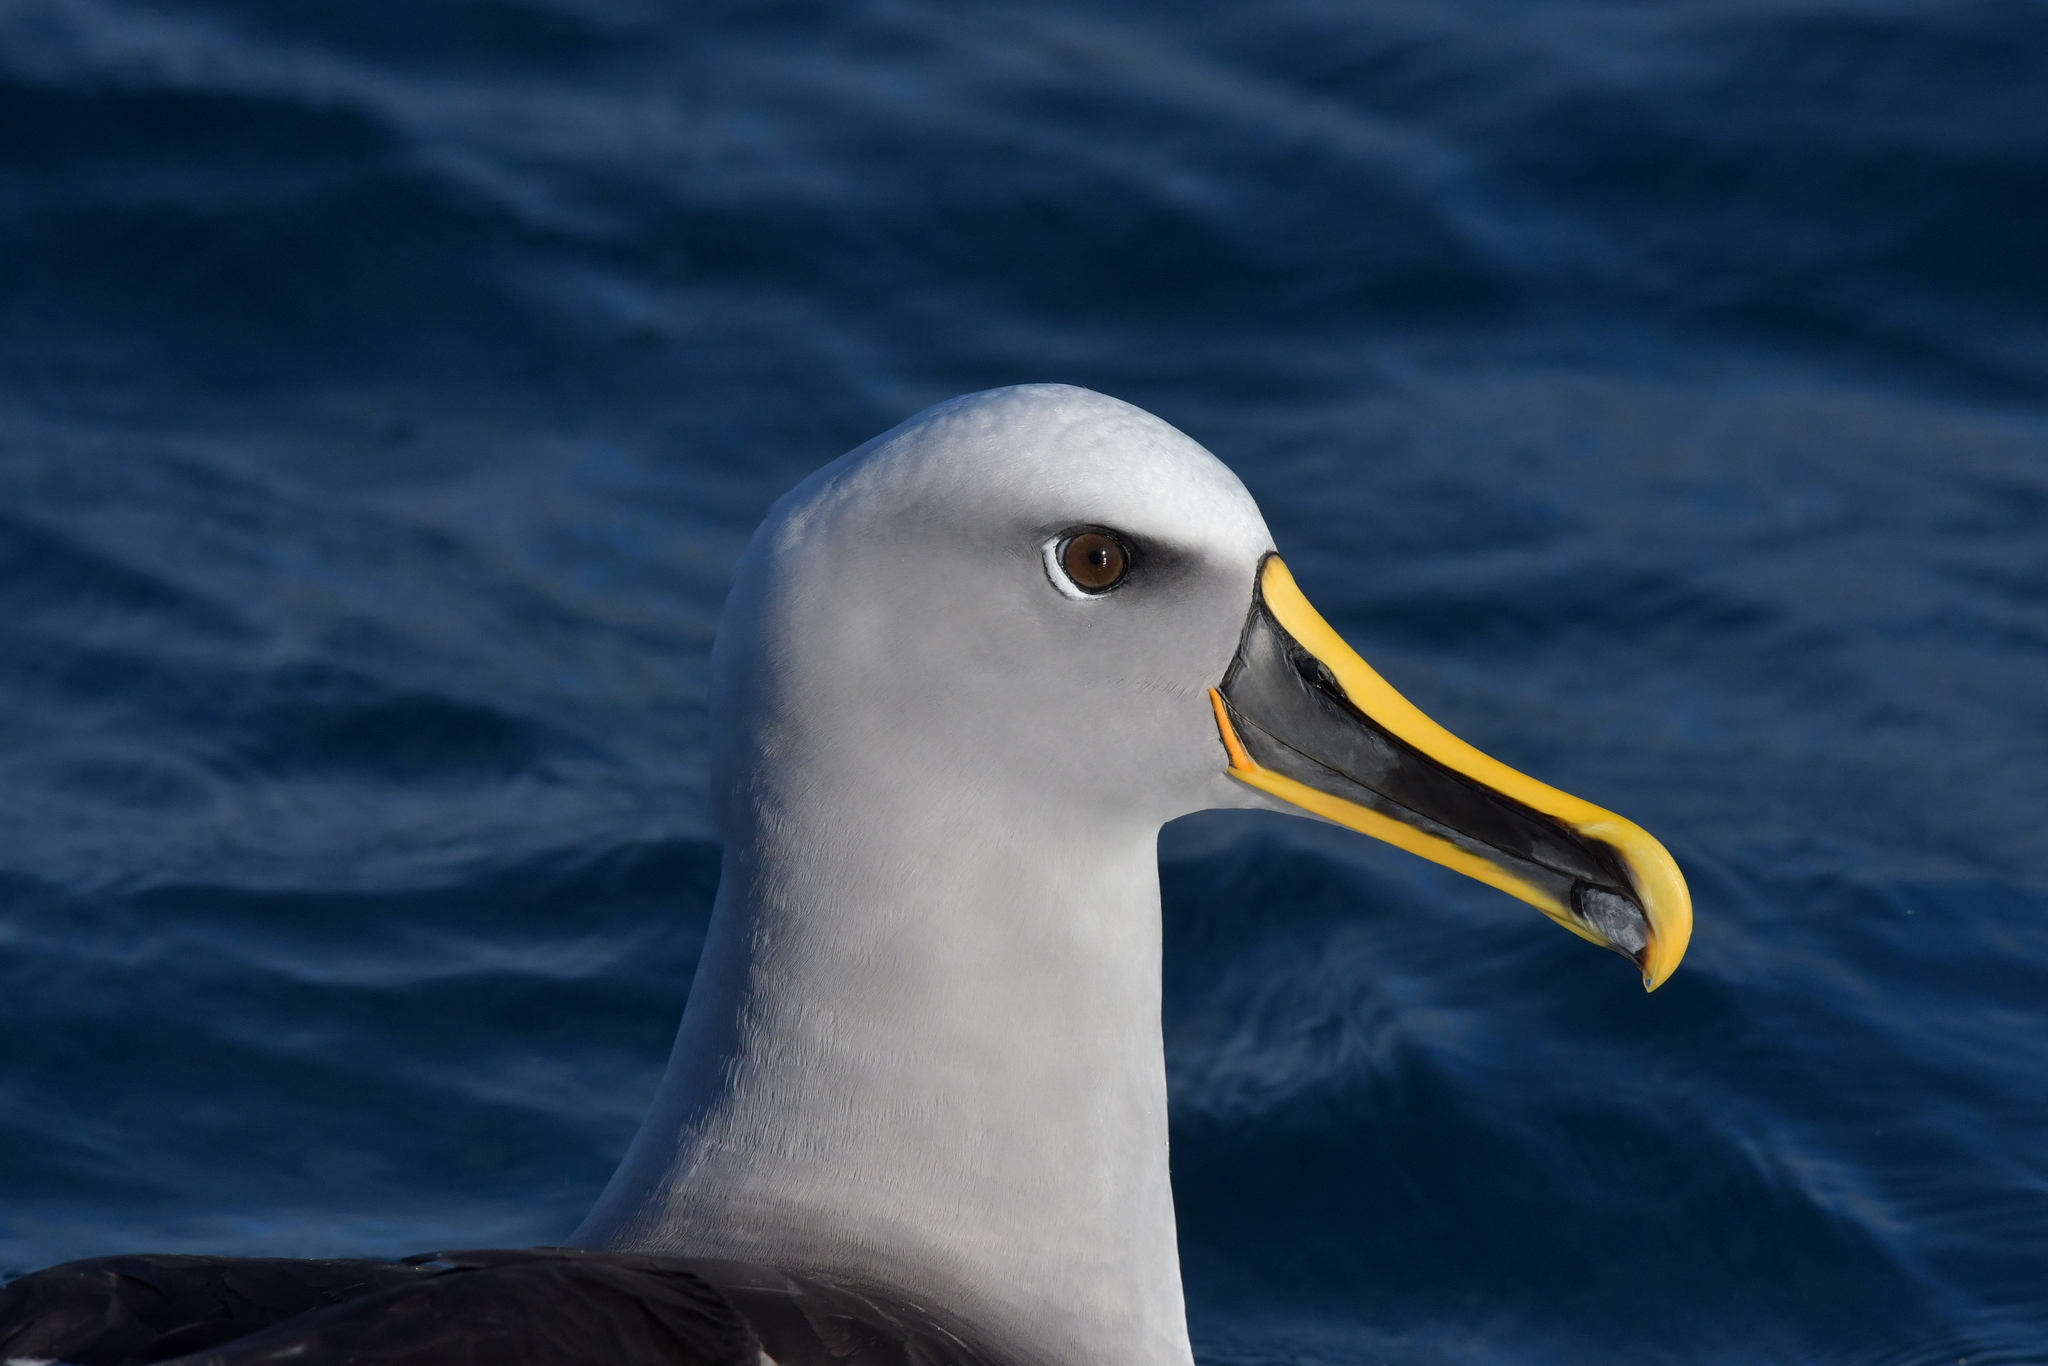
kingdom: Animalia
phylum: Chordata
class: Aves
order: Procellariiformes
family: Diomedeidae
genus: Thalassarche
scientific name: Thalassarche bulleri
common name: Buller's albatross
